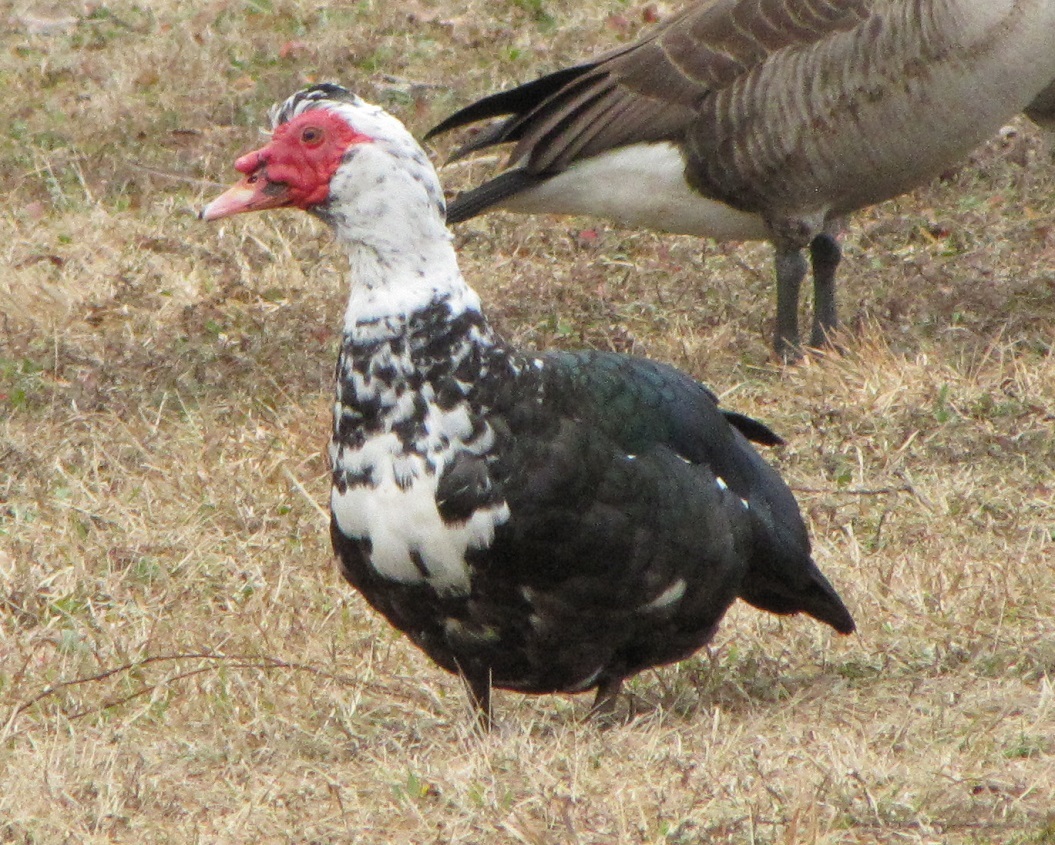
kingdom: Animalia
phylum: Chordata
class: Aves
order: Anseriformes
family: Anatidae
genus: Cairina
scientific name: Cairina moschata
